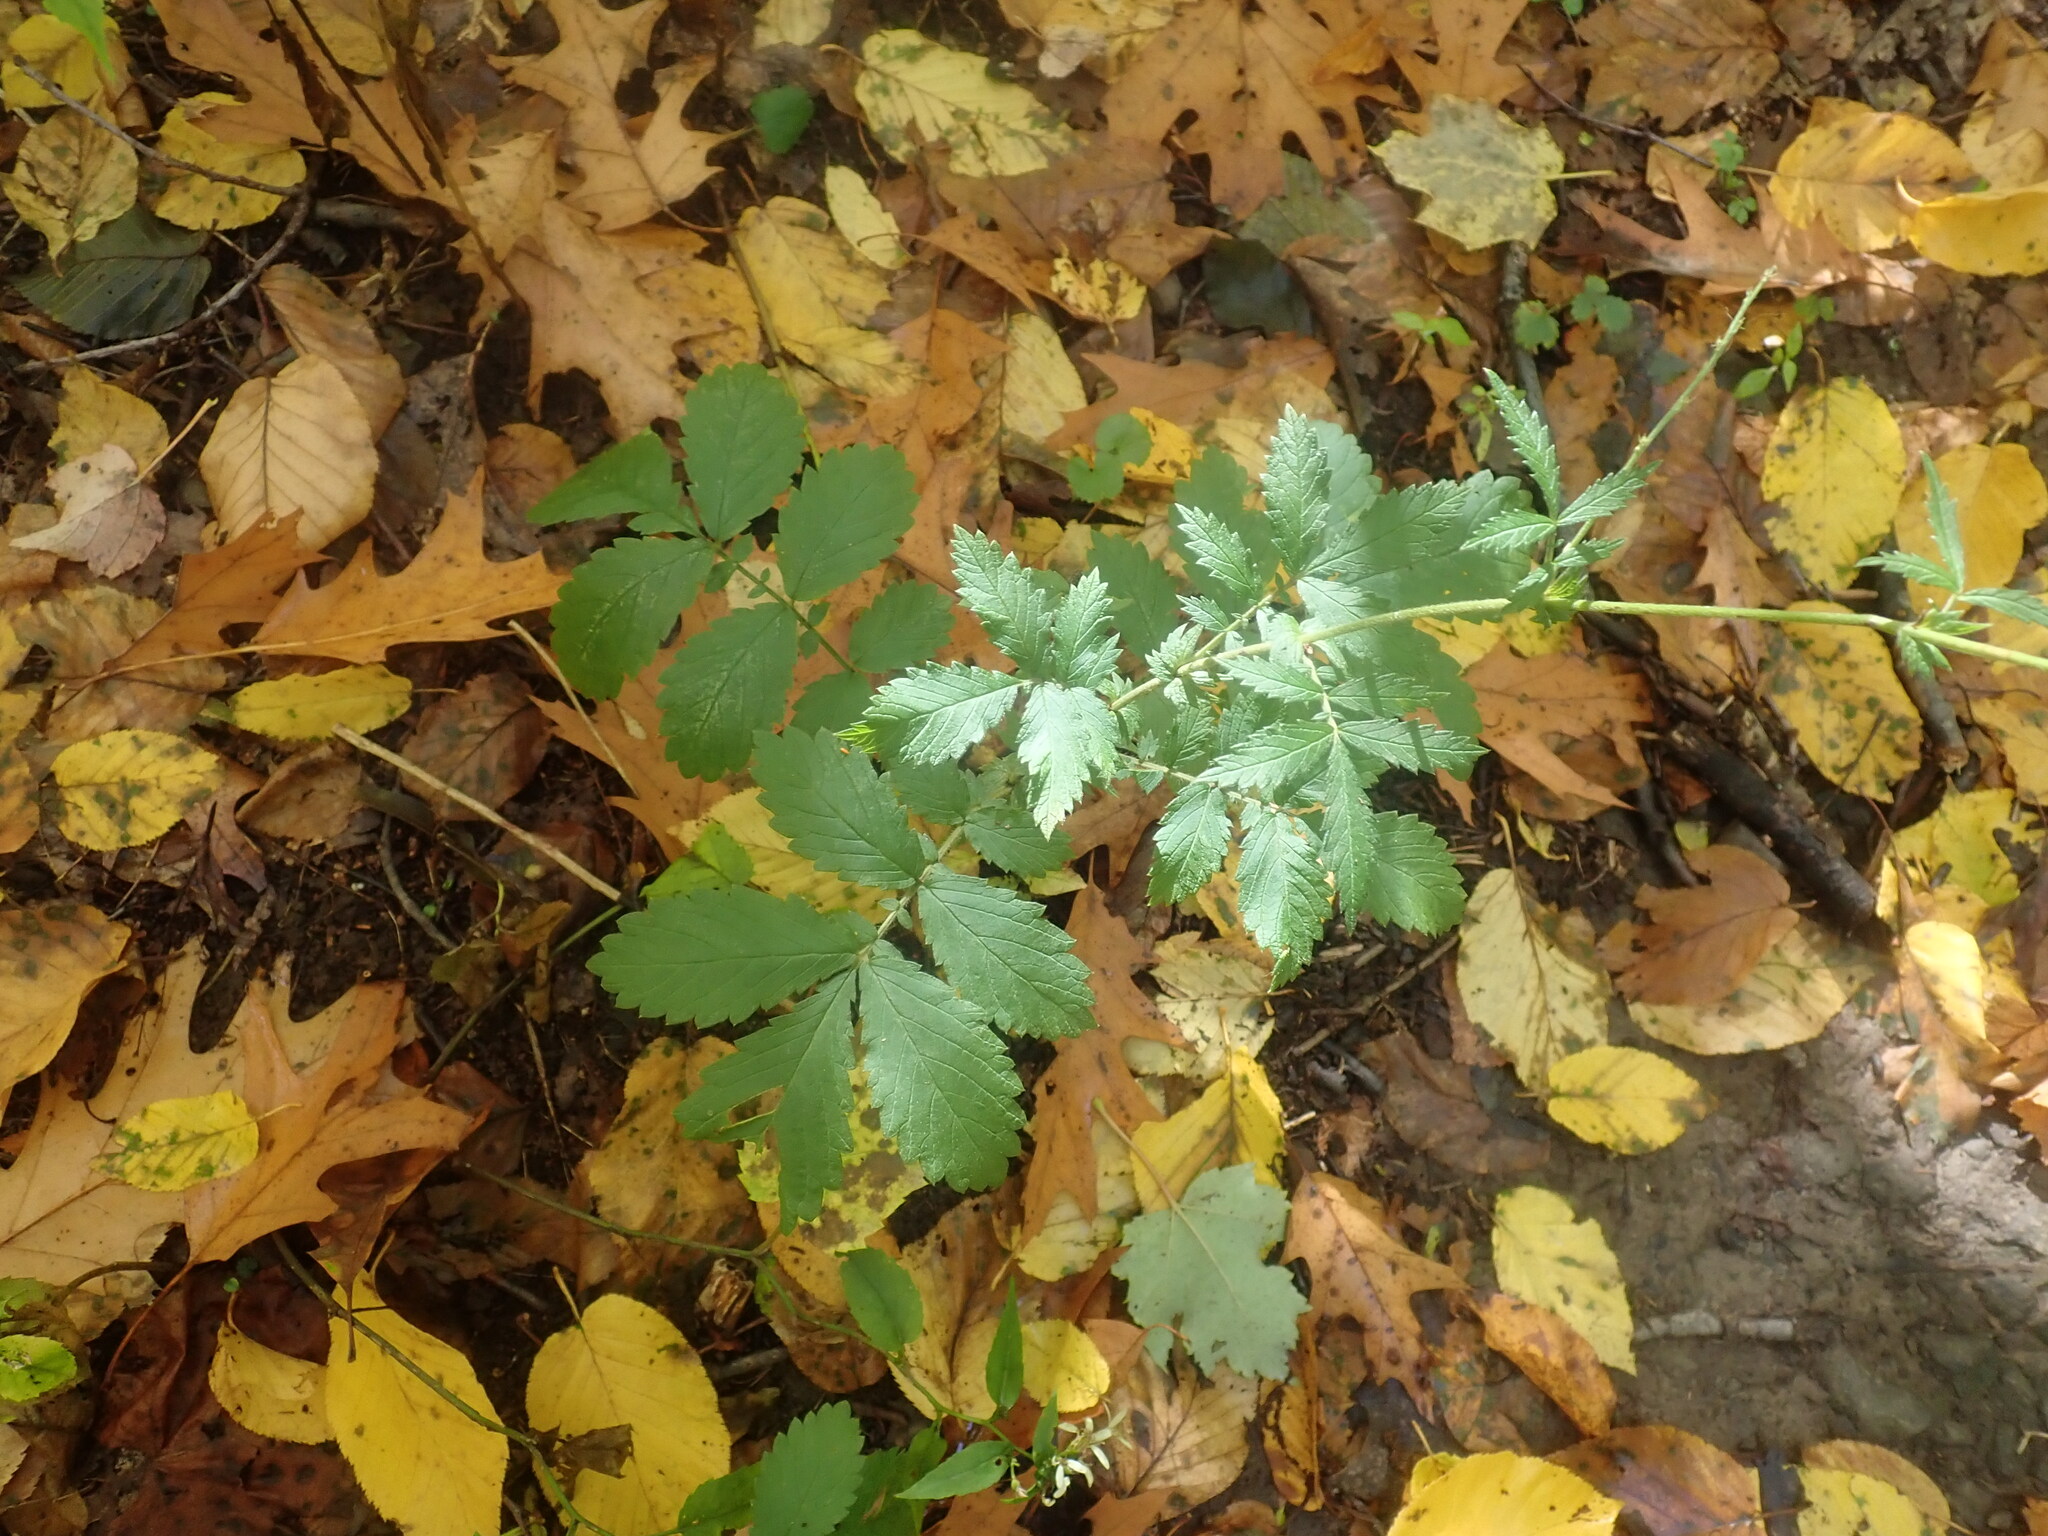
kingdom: Plantae
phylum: Tracheophyta
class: Magnoliopsida
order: Rosales
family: Rosaceae
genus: Agrimonia
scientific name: Agrimonia
